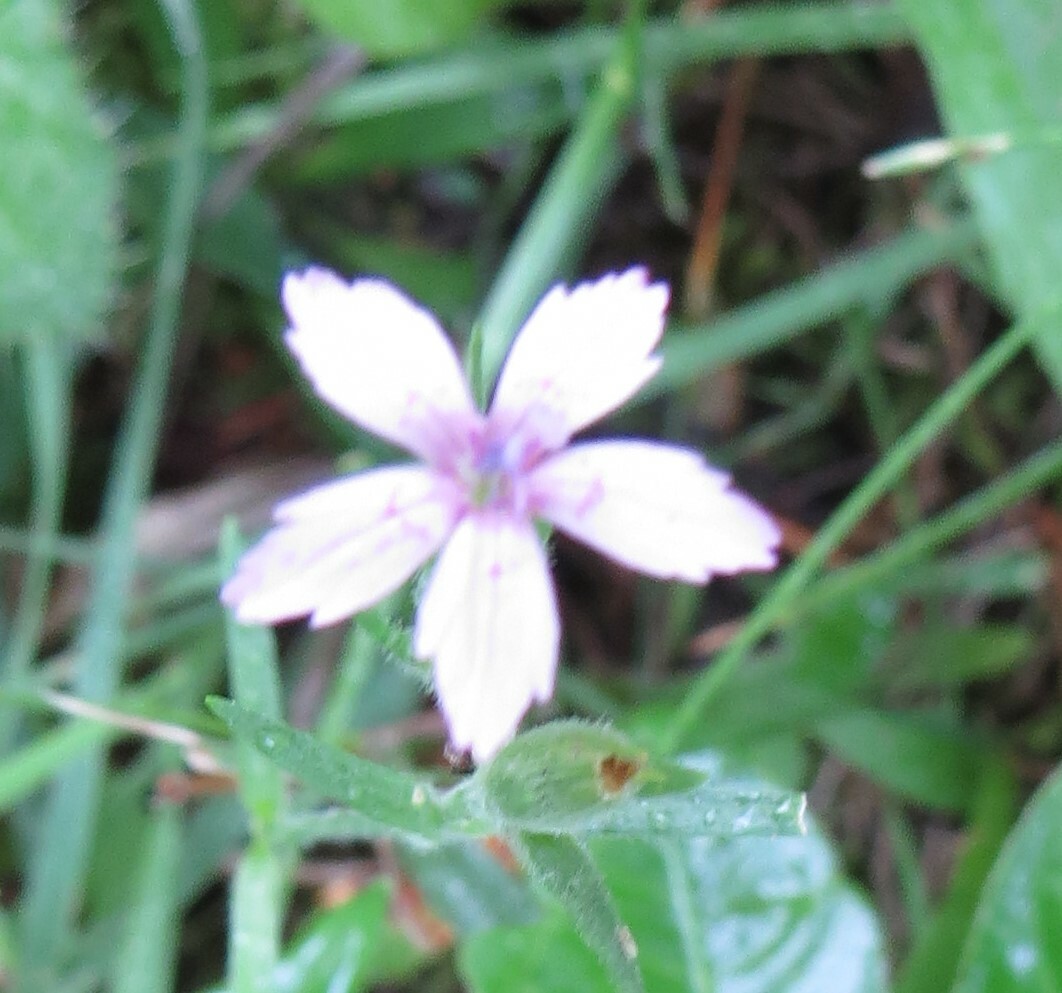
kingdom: Plantae
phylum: Tracheophyta
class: Magnoliopsida
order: Caryophyllales
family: Caryophyllaceae
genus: Dianthus
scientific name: Dianthus armeria
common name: Deptford pink
